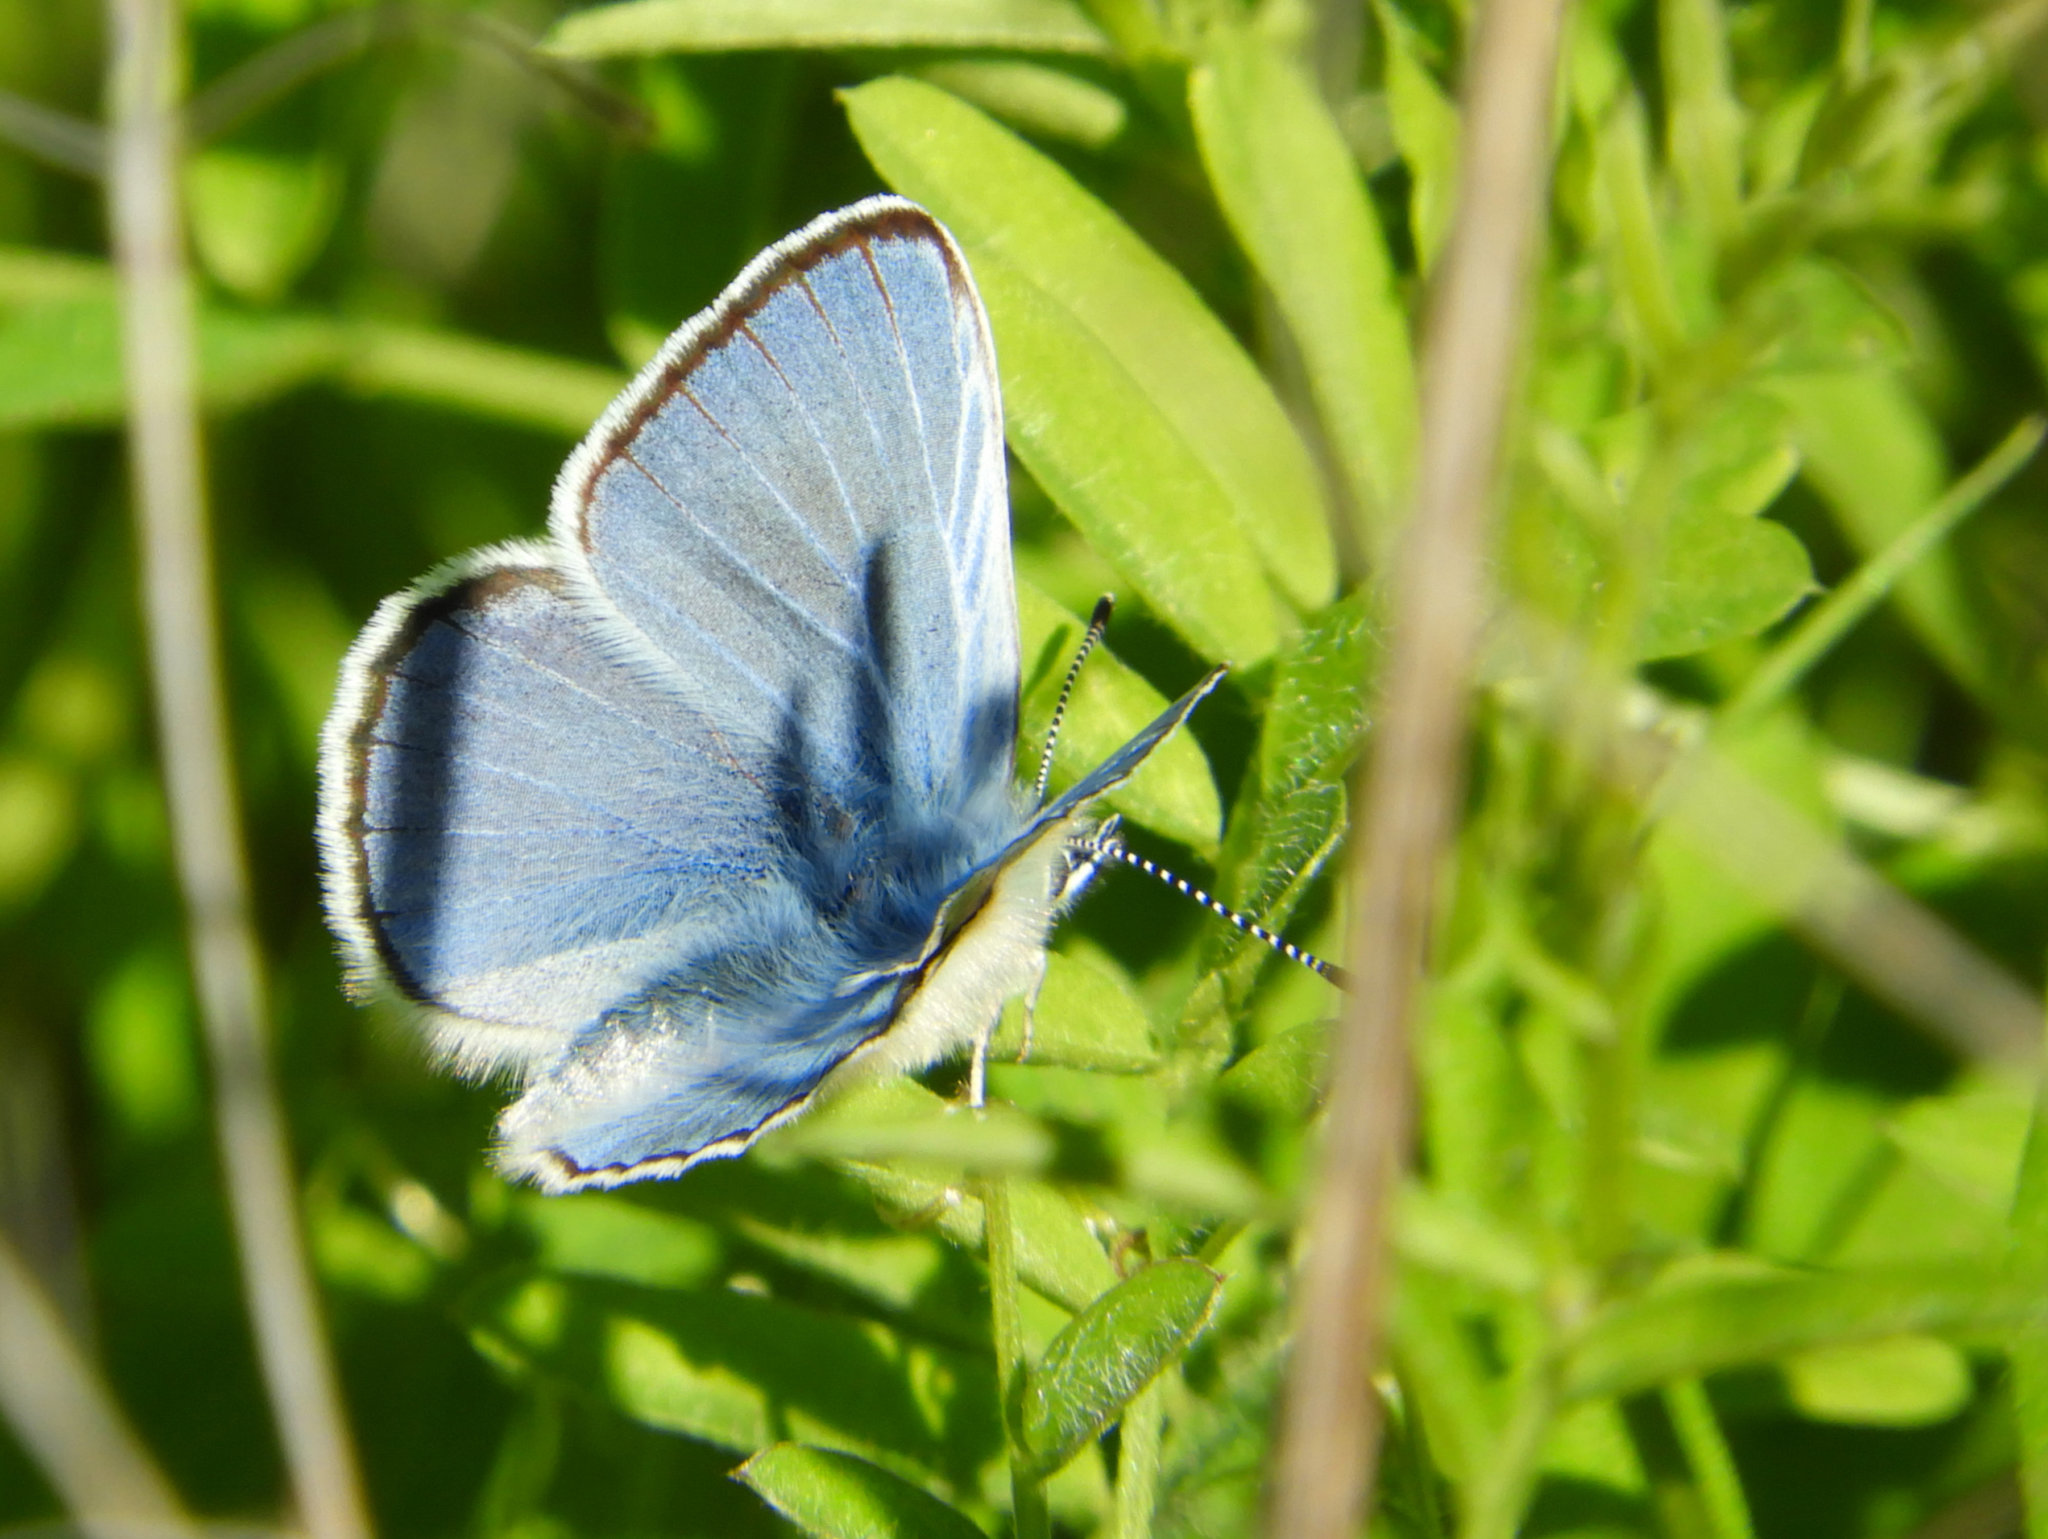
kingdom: Animalia
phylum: Arthropoda
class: Insecta
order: Lepidoptera
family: Lycaenidae
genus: Glaucopsyche
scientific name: Glaucopsyche lygdamus
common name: Silvery blue
